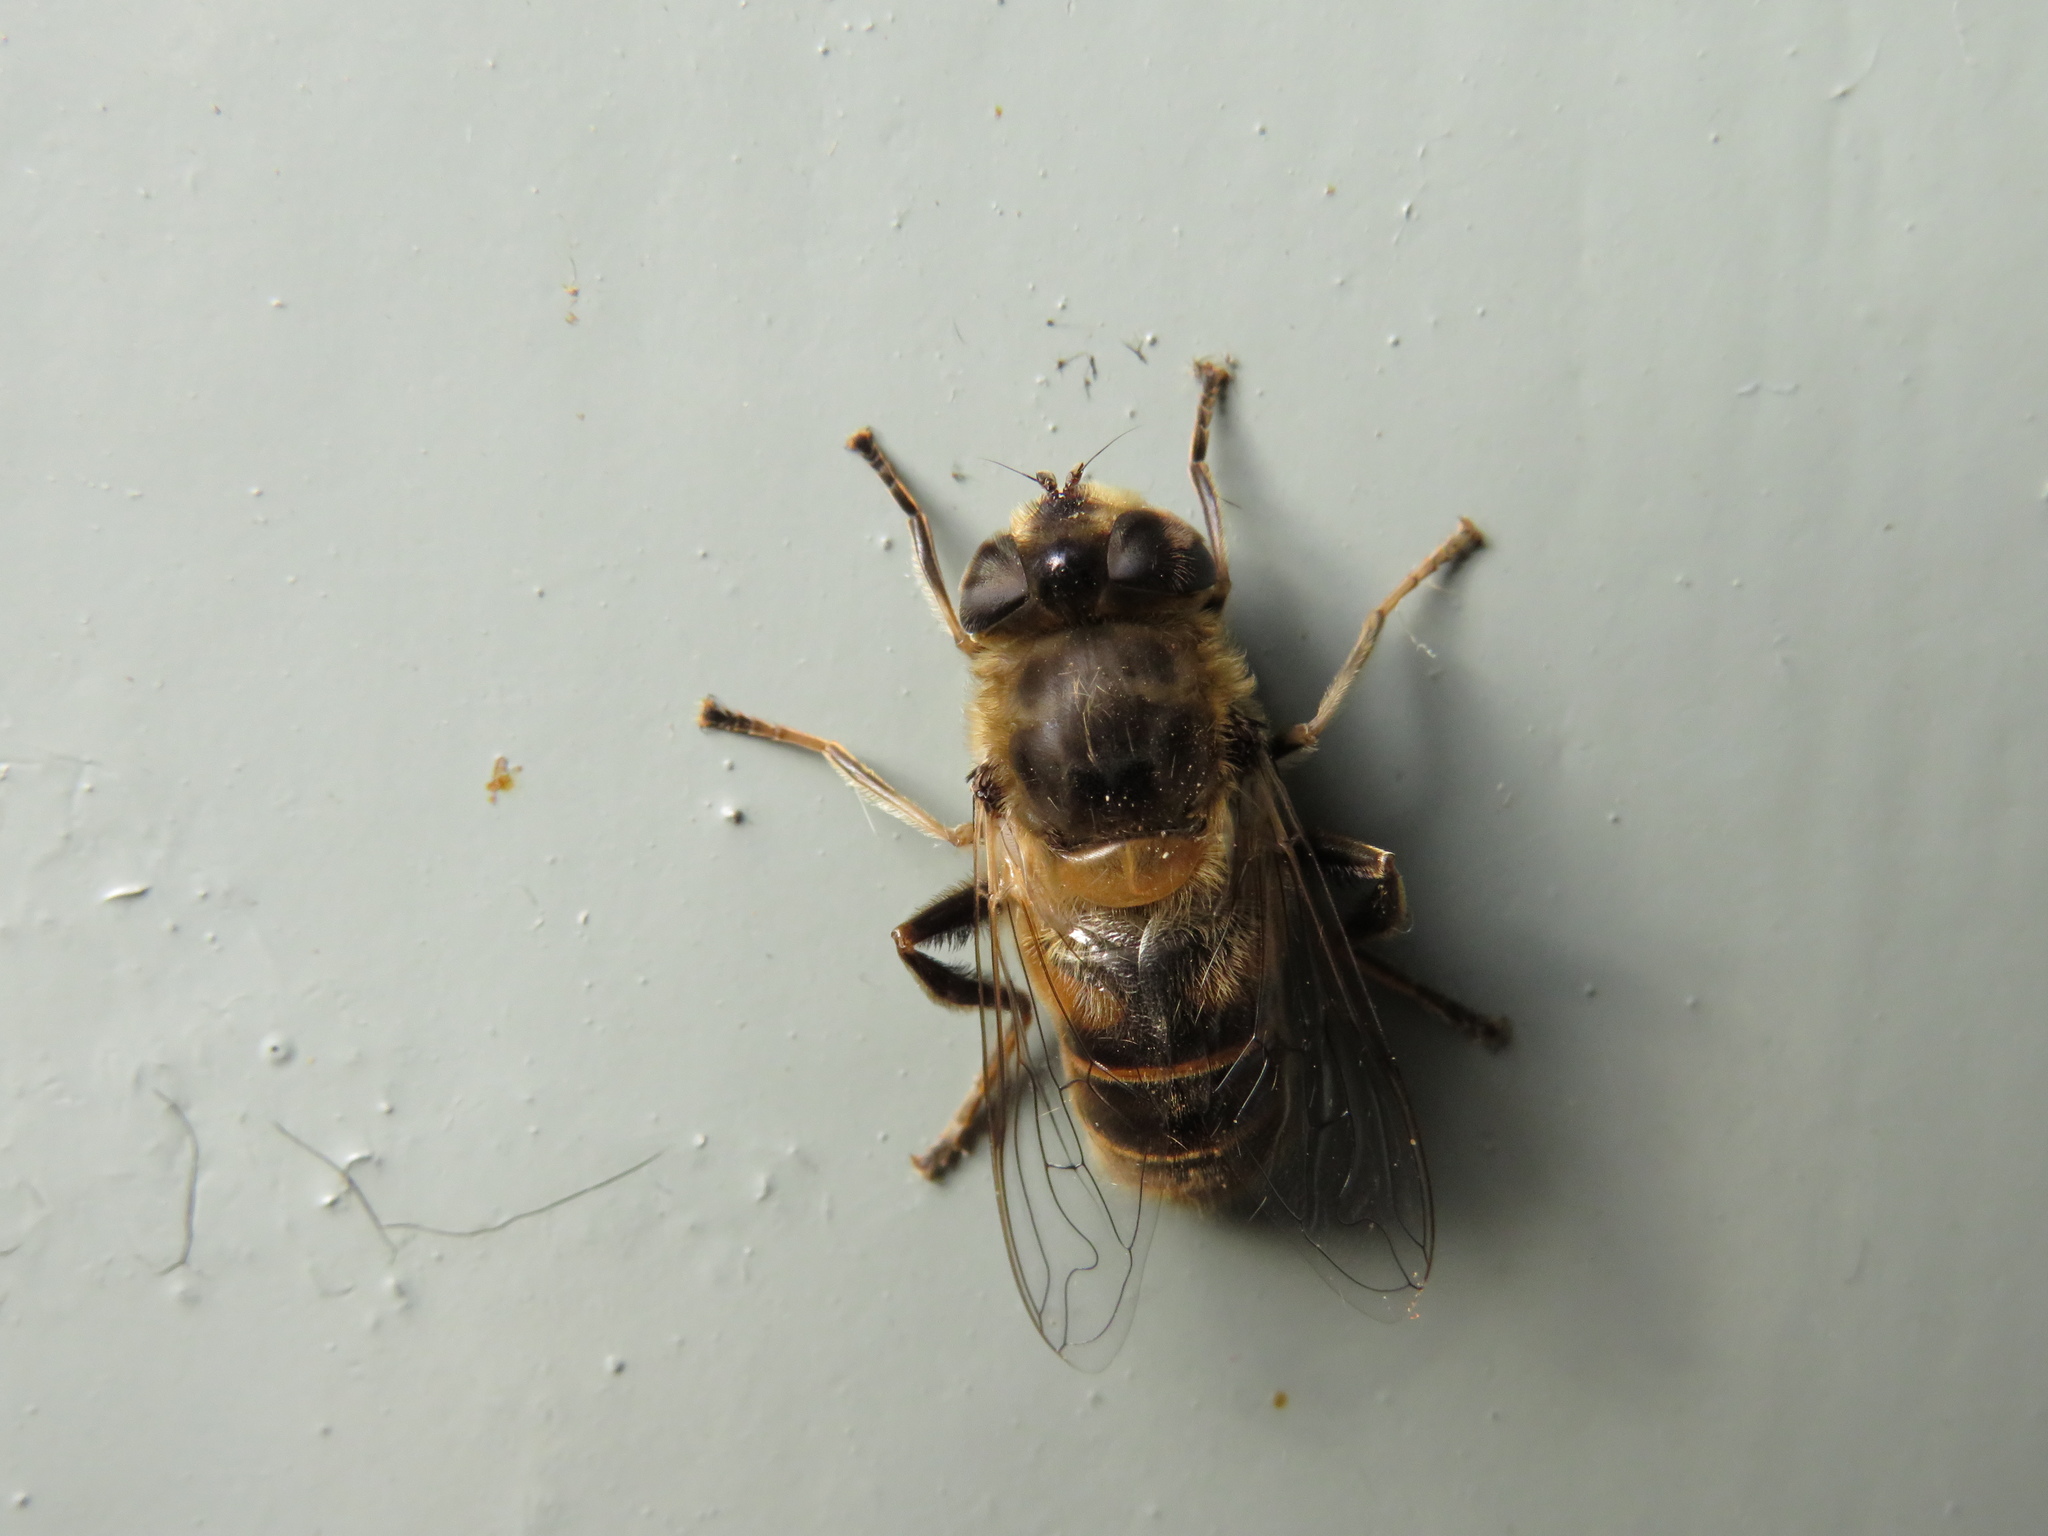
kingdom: Animalia
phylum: Arthropoda
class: Insecta
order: Diptera
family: Syrphidae
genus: Eristalis
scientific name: Eristalis tenax
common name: Drone fly
